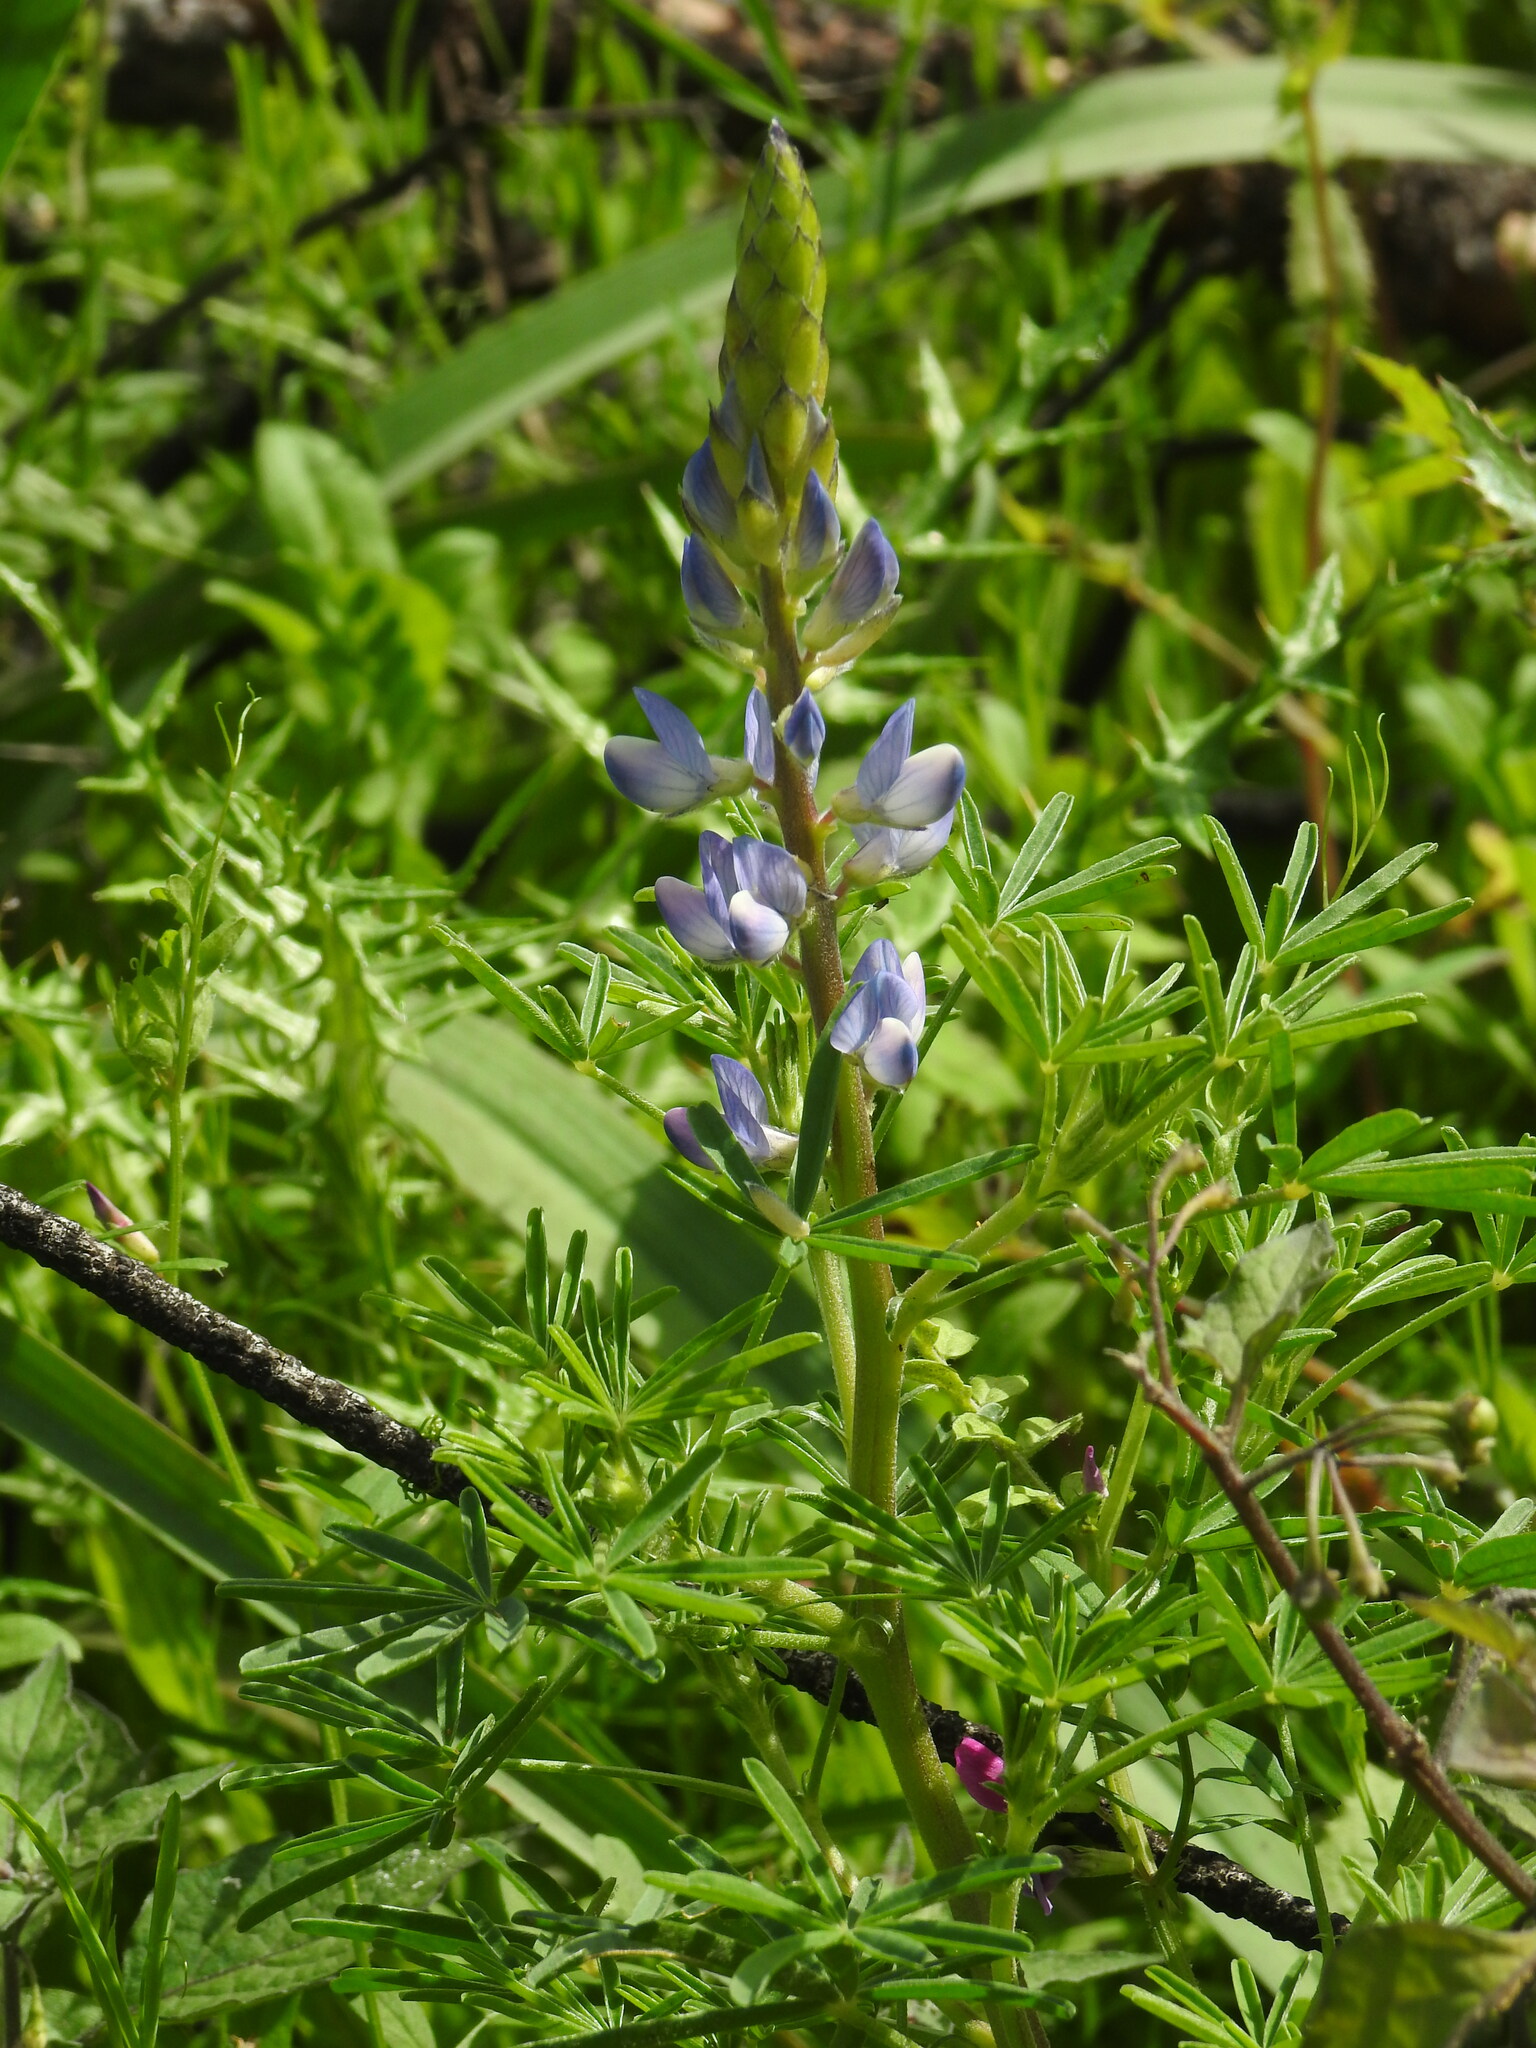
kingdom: Plantae
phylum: Tracheophyta
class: Magnoliopsida
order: Fabales
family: Fabaceae
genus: Lupinus
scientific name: Lupinus angustifolius
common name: Narrow-leaved lupin
